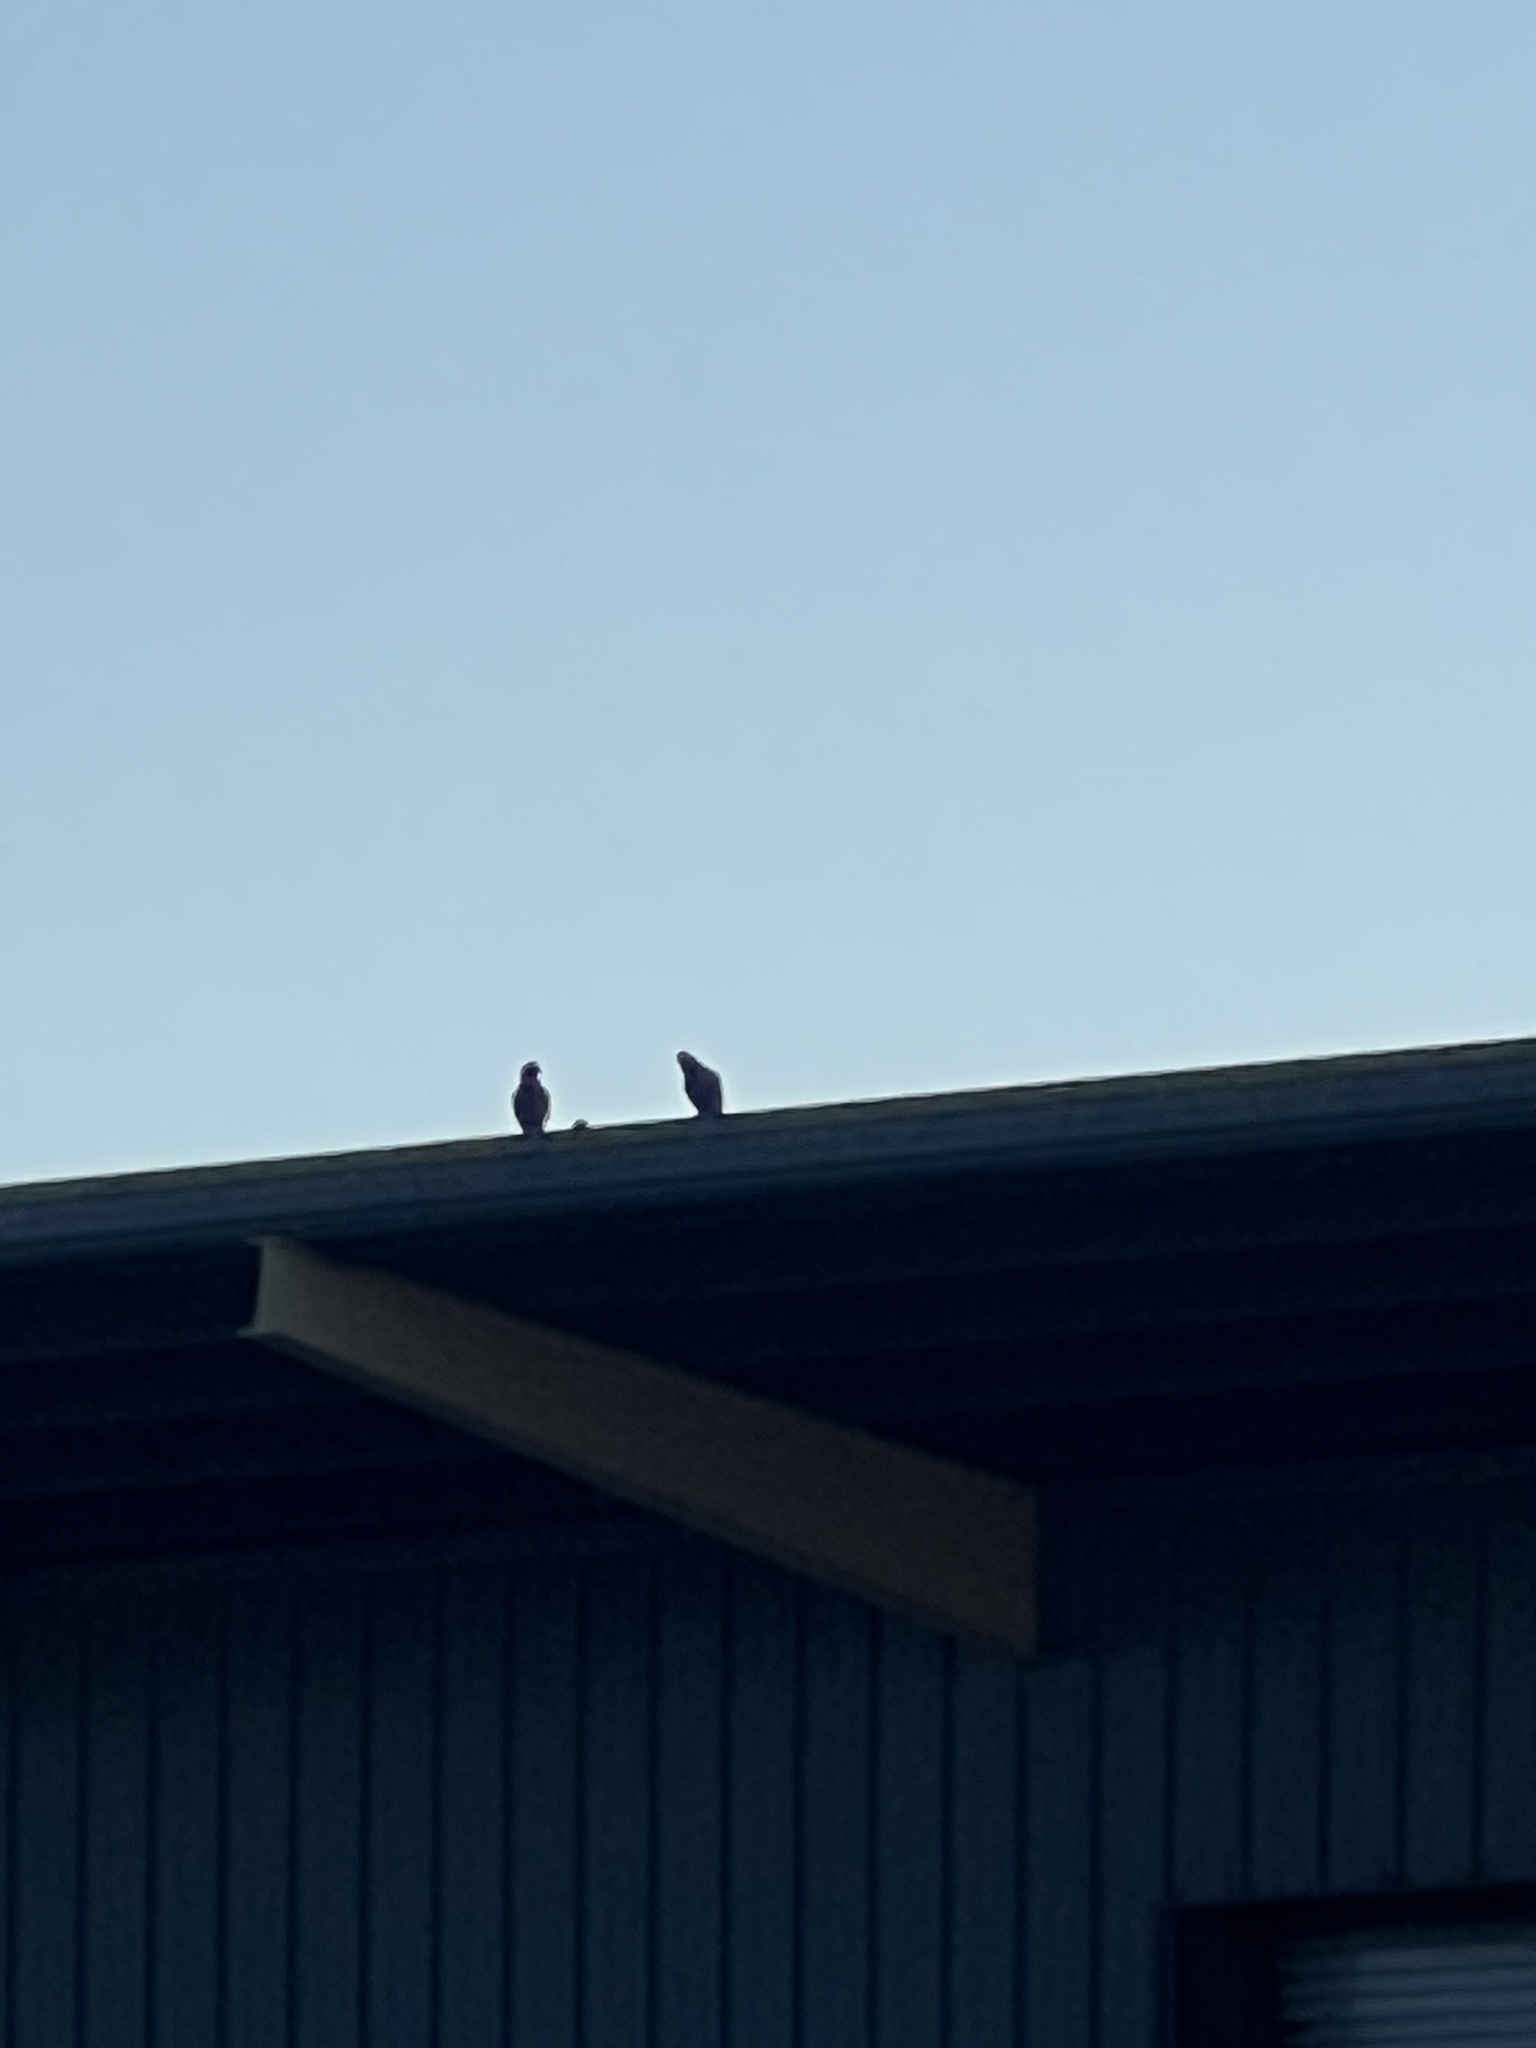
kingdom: Animalia
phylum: Chordata
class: Aves
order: Columbiformes
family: Columbidae
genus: Columba
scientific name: Columba livia
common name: Rock pigeon
